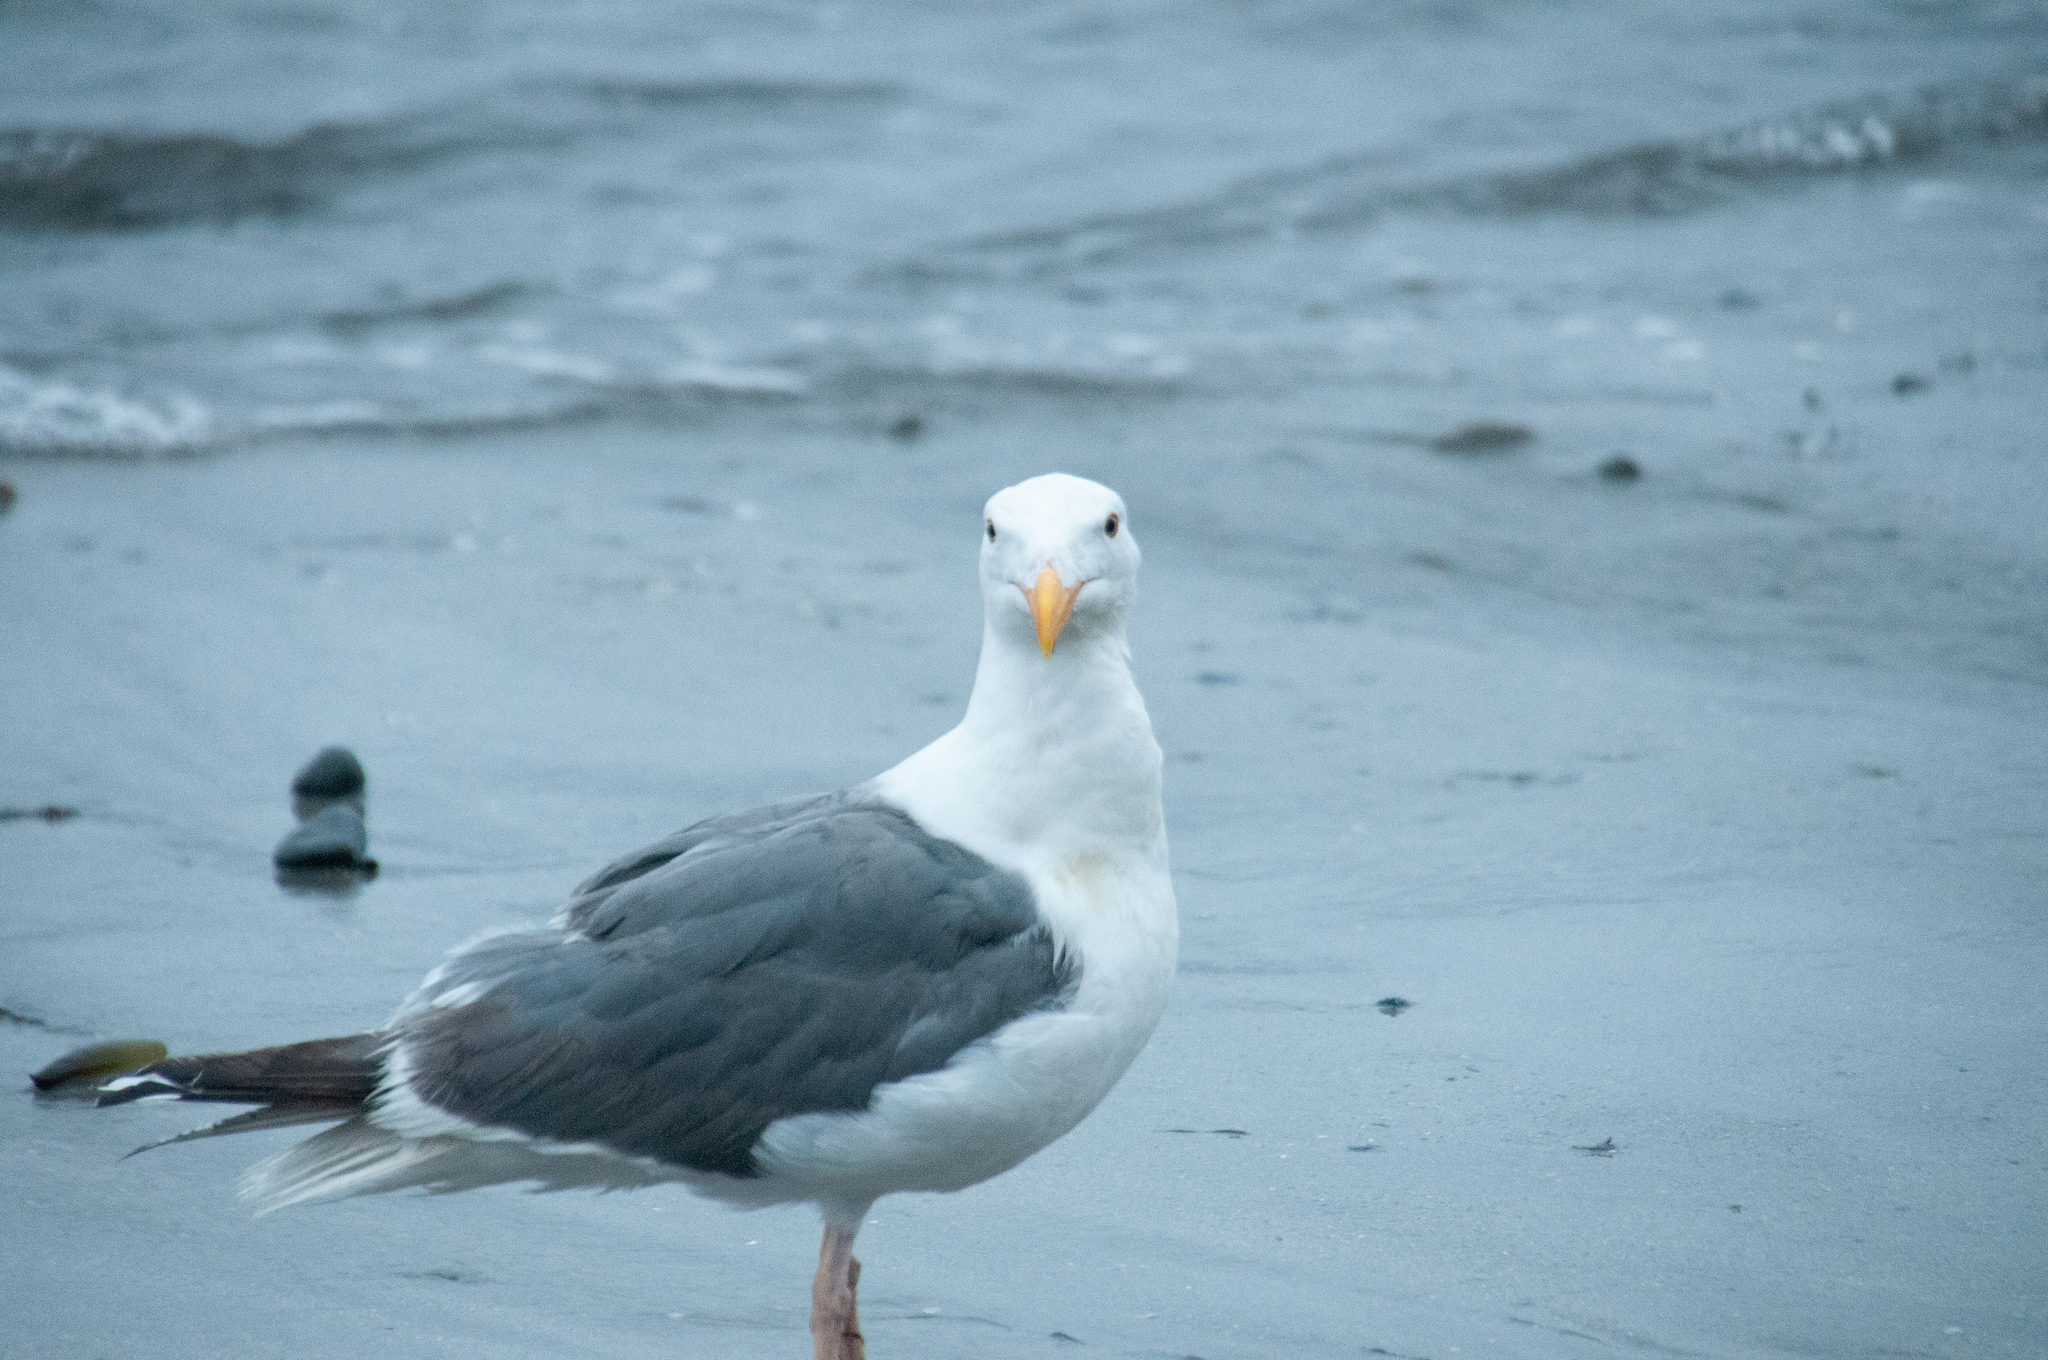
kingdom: Animalia
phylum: Chordata
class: Aves
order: Charadriiformes
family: Laridae
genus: Larus
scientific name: Larus occidentalis
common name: Western gull
